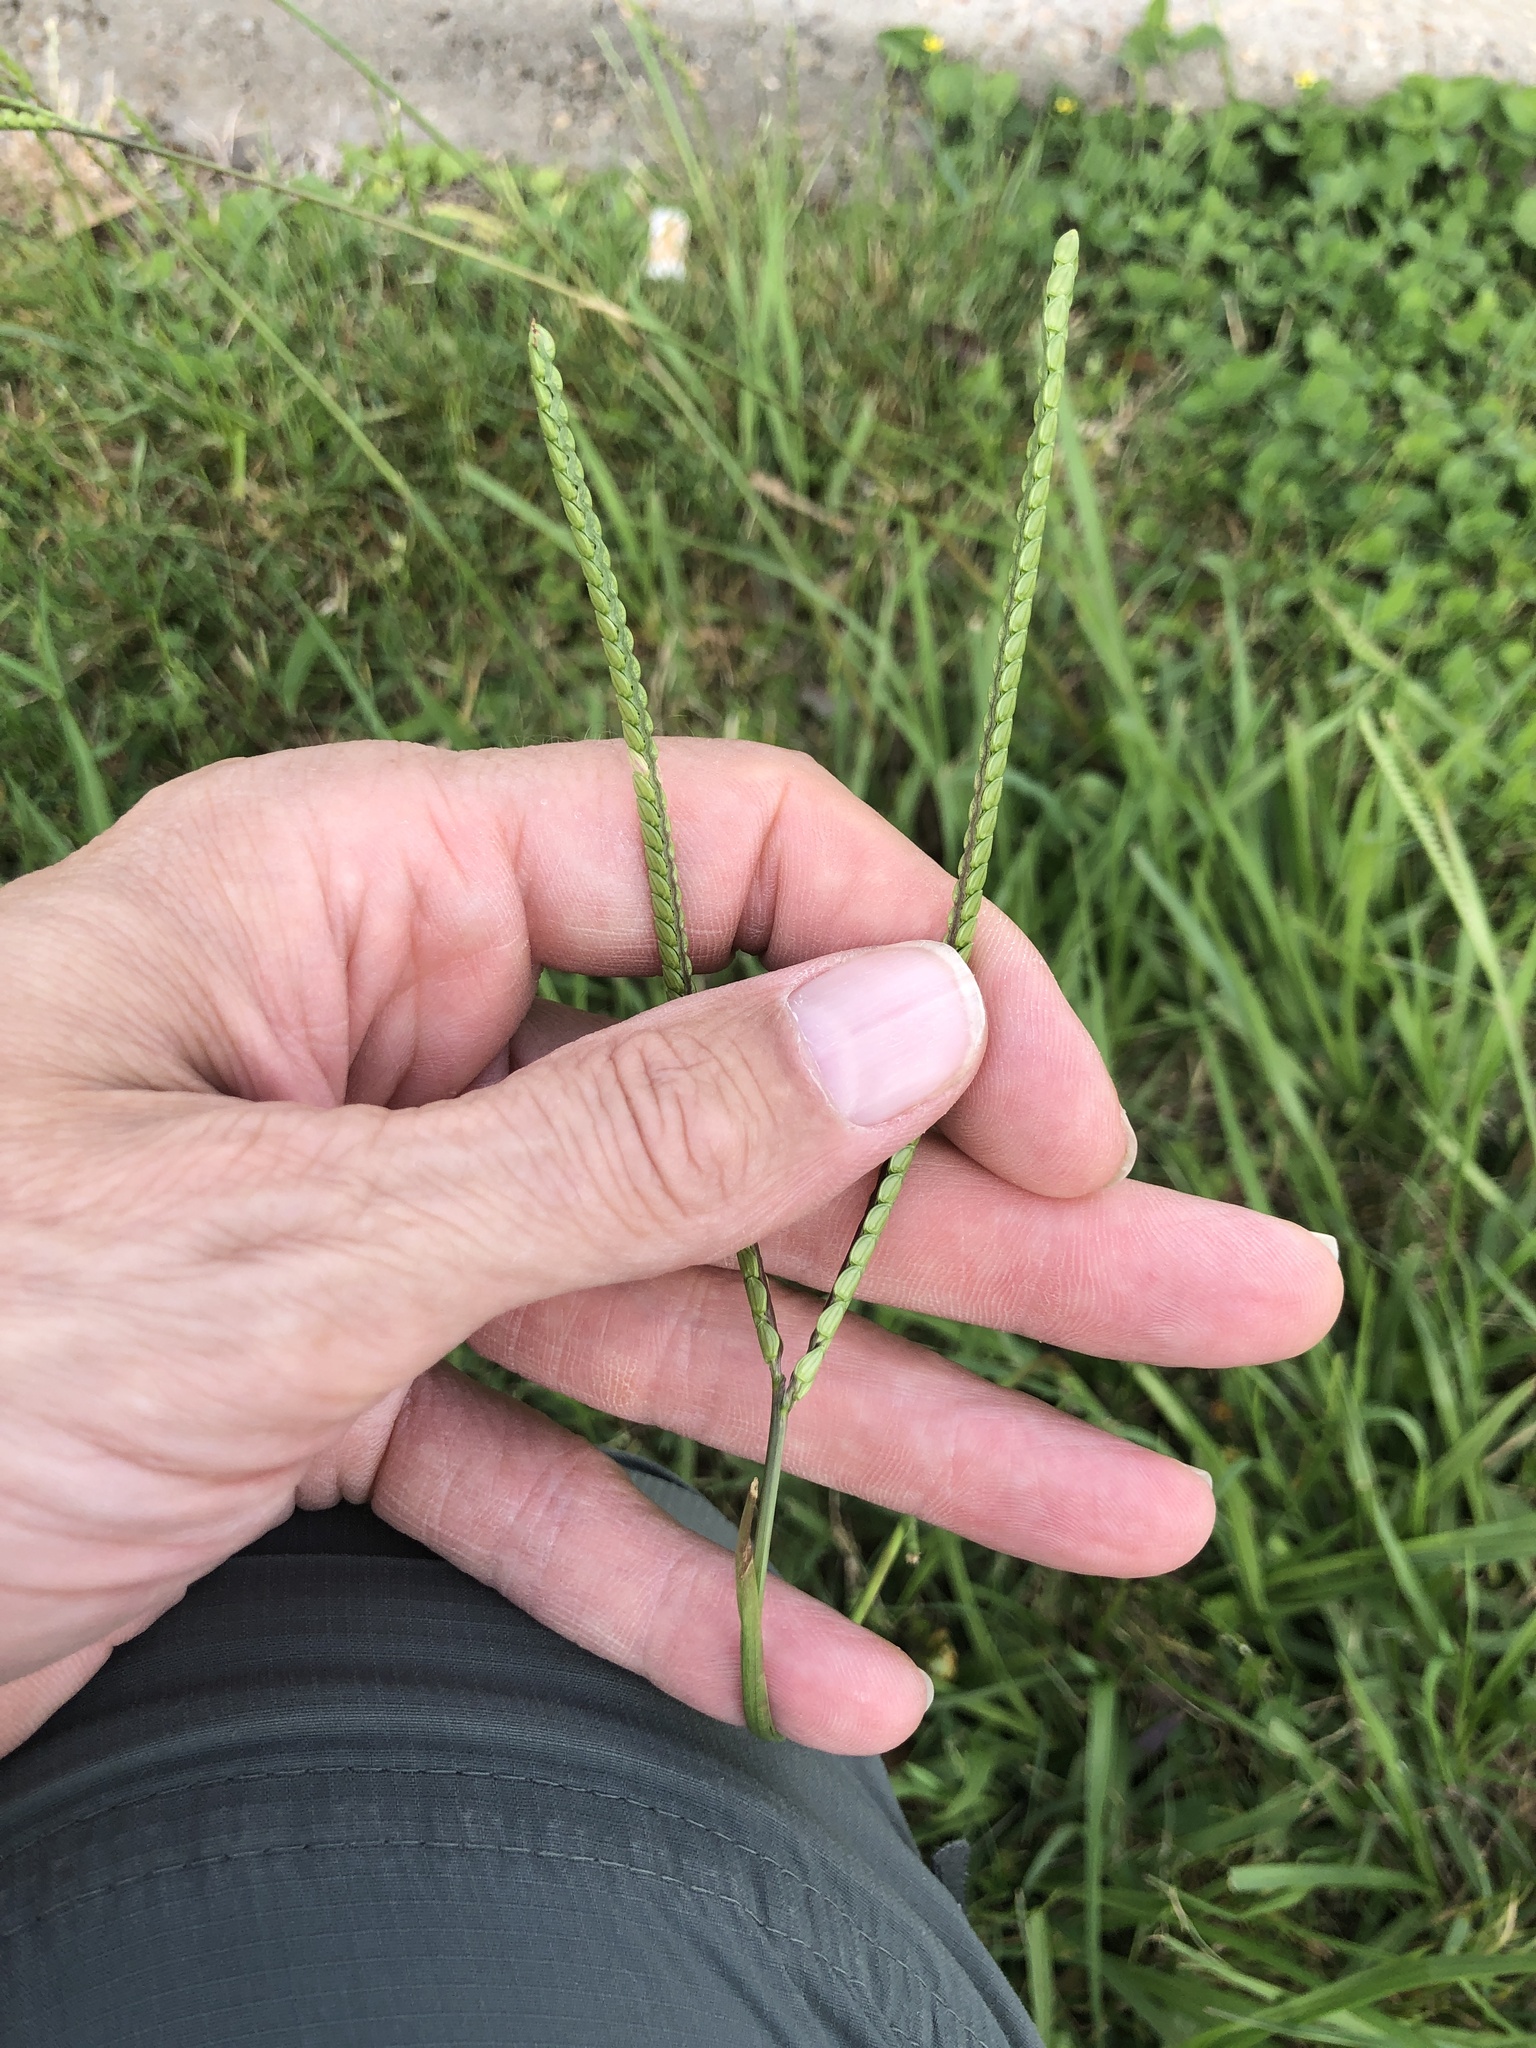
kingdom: Plantae
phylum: Tracheophyta
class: Liliopsida
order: Poales
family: Poaceae
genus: Paspalum
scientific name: Paspalum notatum
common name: Bahiagrass
